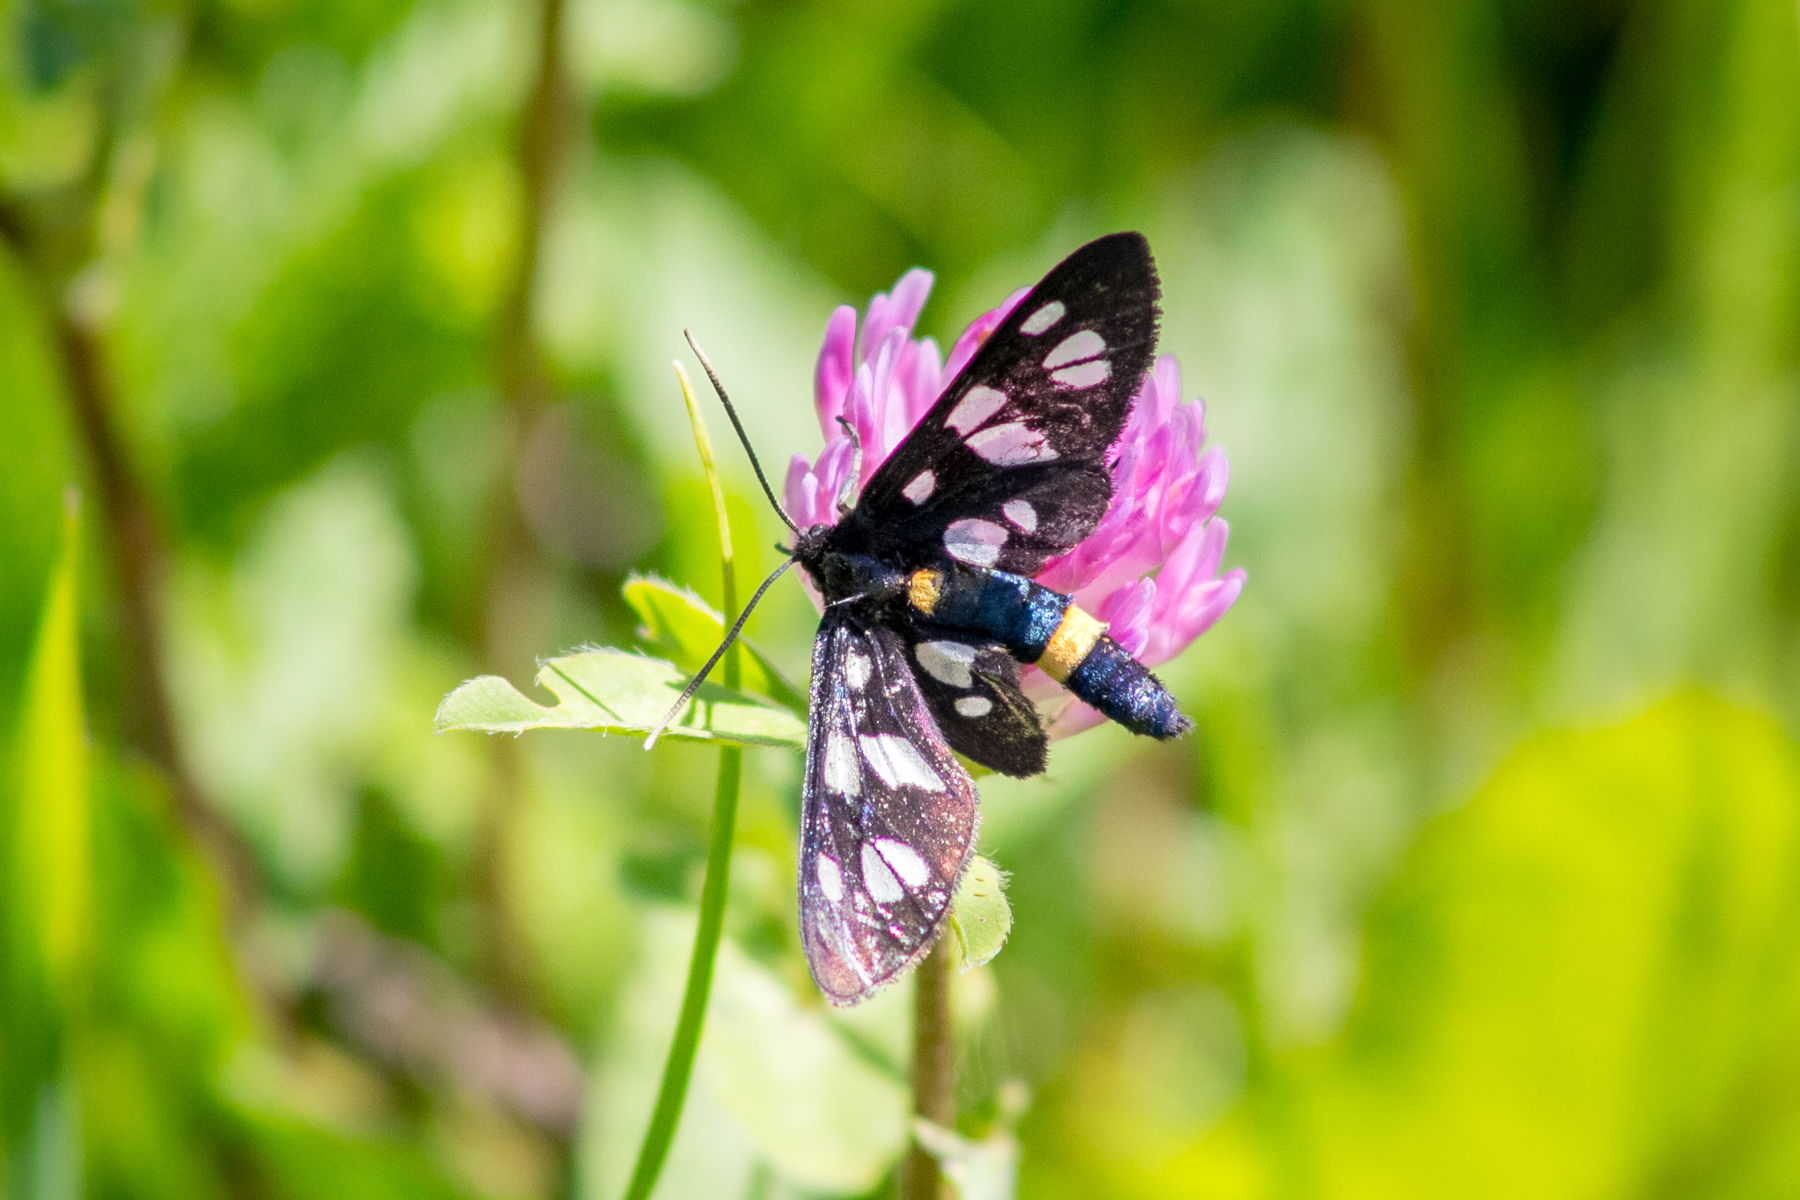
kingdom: Animalia
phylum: Arthropoda
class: Insecta
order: Lepidoptera
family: Erebidae
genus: Amata
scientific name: Amata nigricornis
